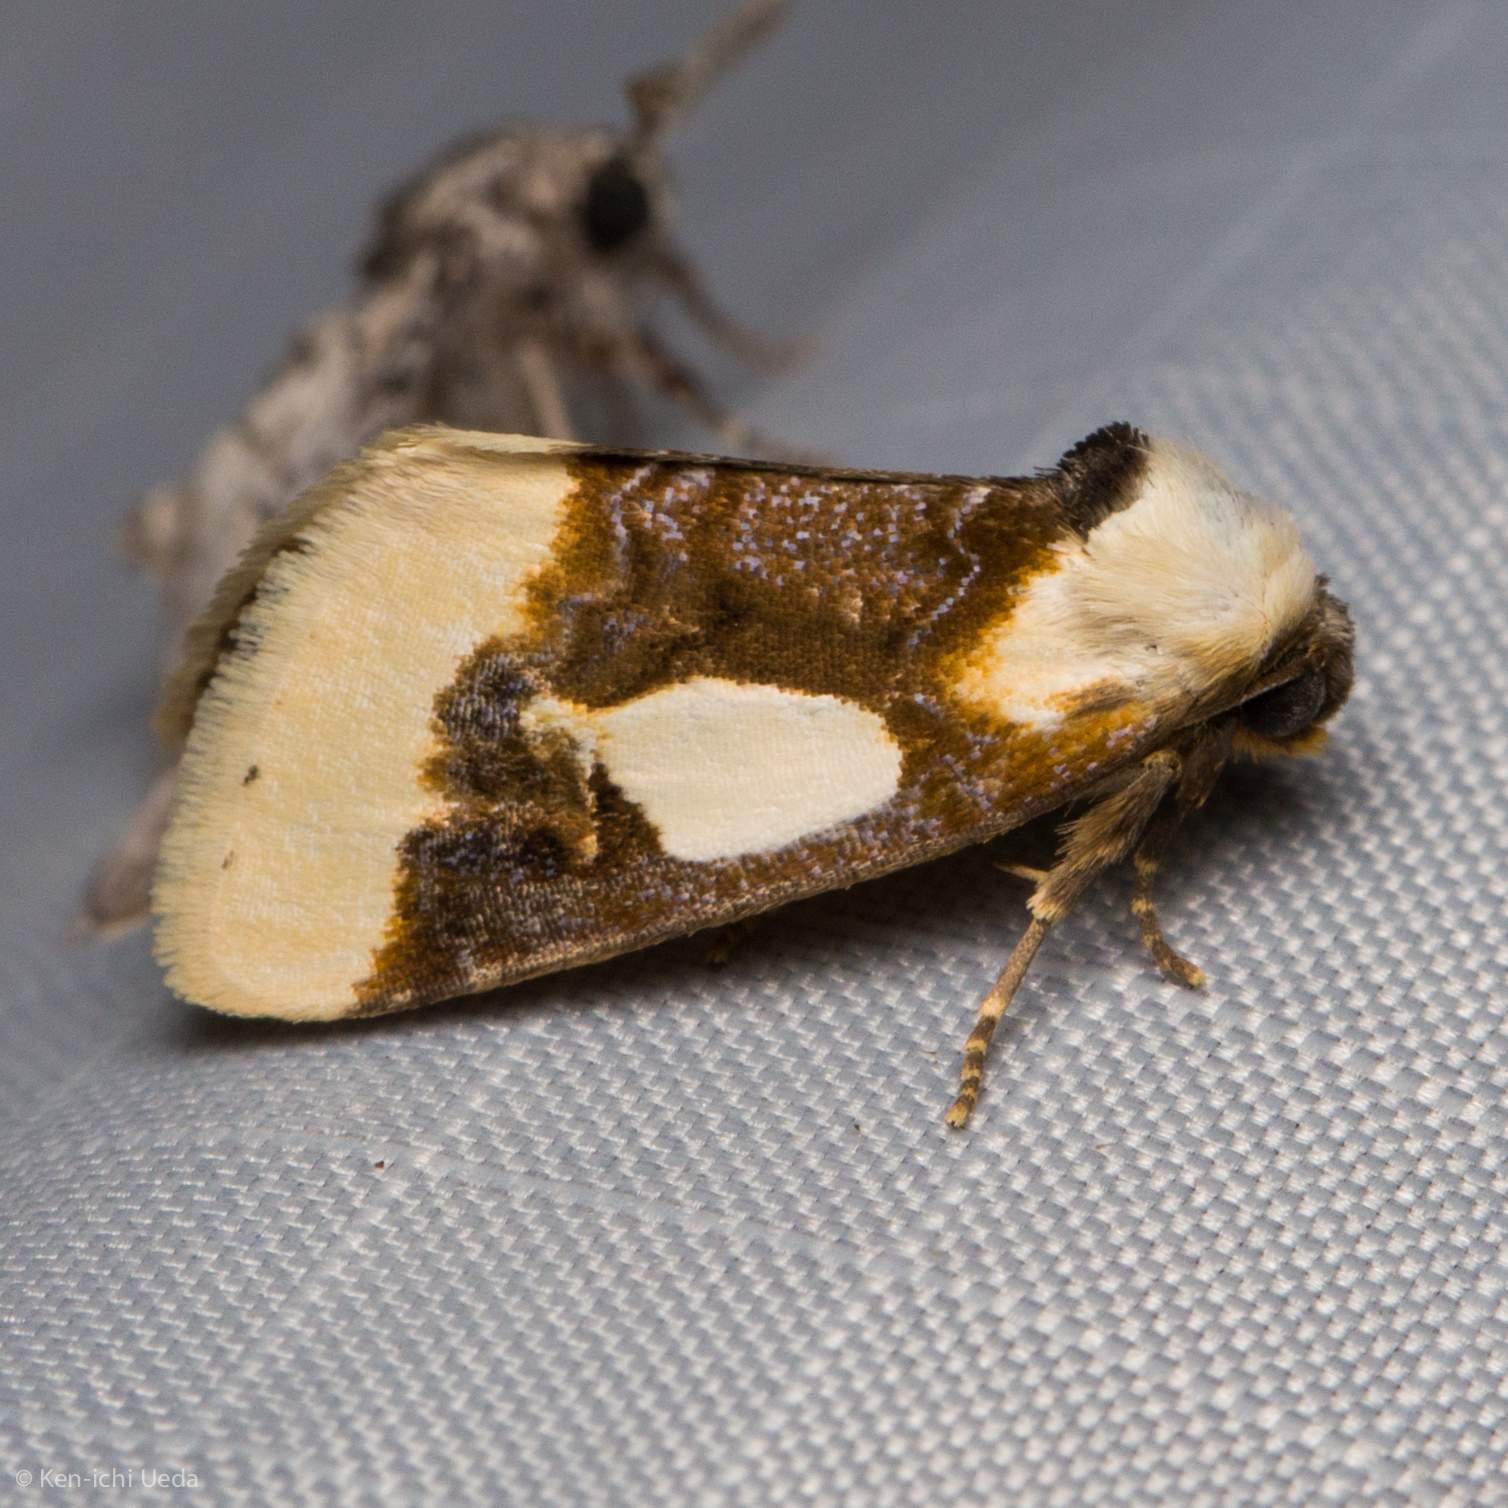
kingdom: Animalia
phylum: Arthropoda
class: Insecta
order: Lepidoptera
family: Noctuidae
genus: Chrysoecia
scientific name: Chrysoecia gladiola
